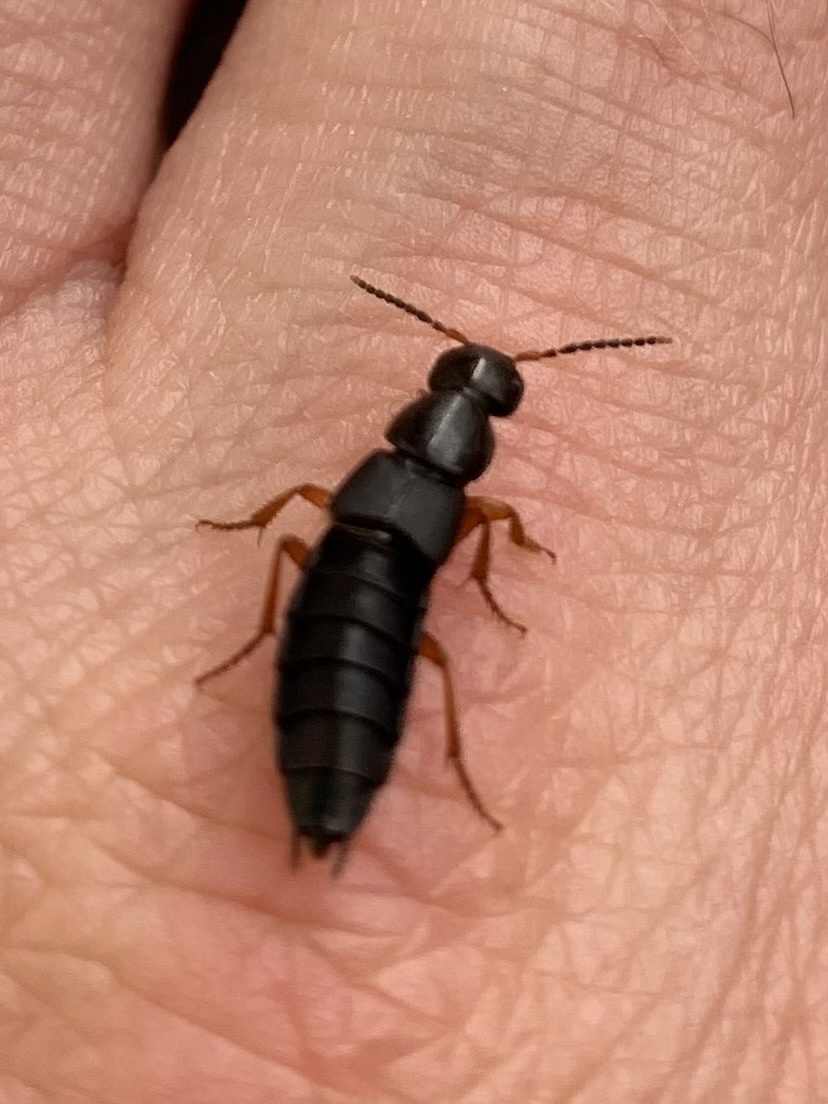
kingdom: Animalia
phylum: Arthropoda
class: Insecta
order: Coleoptera
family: Staphylinidae
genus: Ocypus
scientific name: Ocypus brunnipes
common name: Rove beetle
